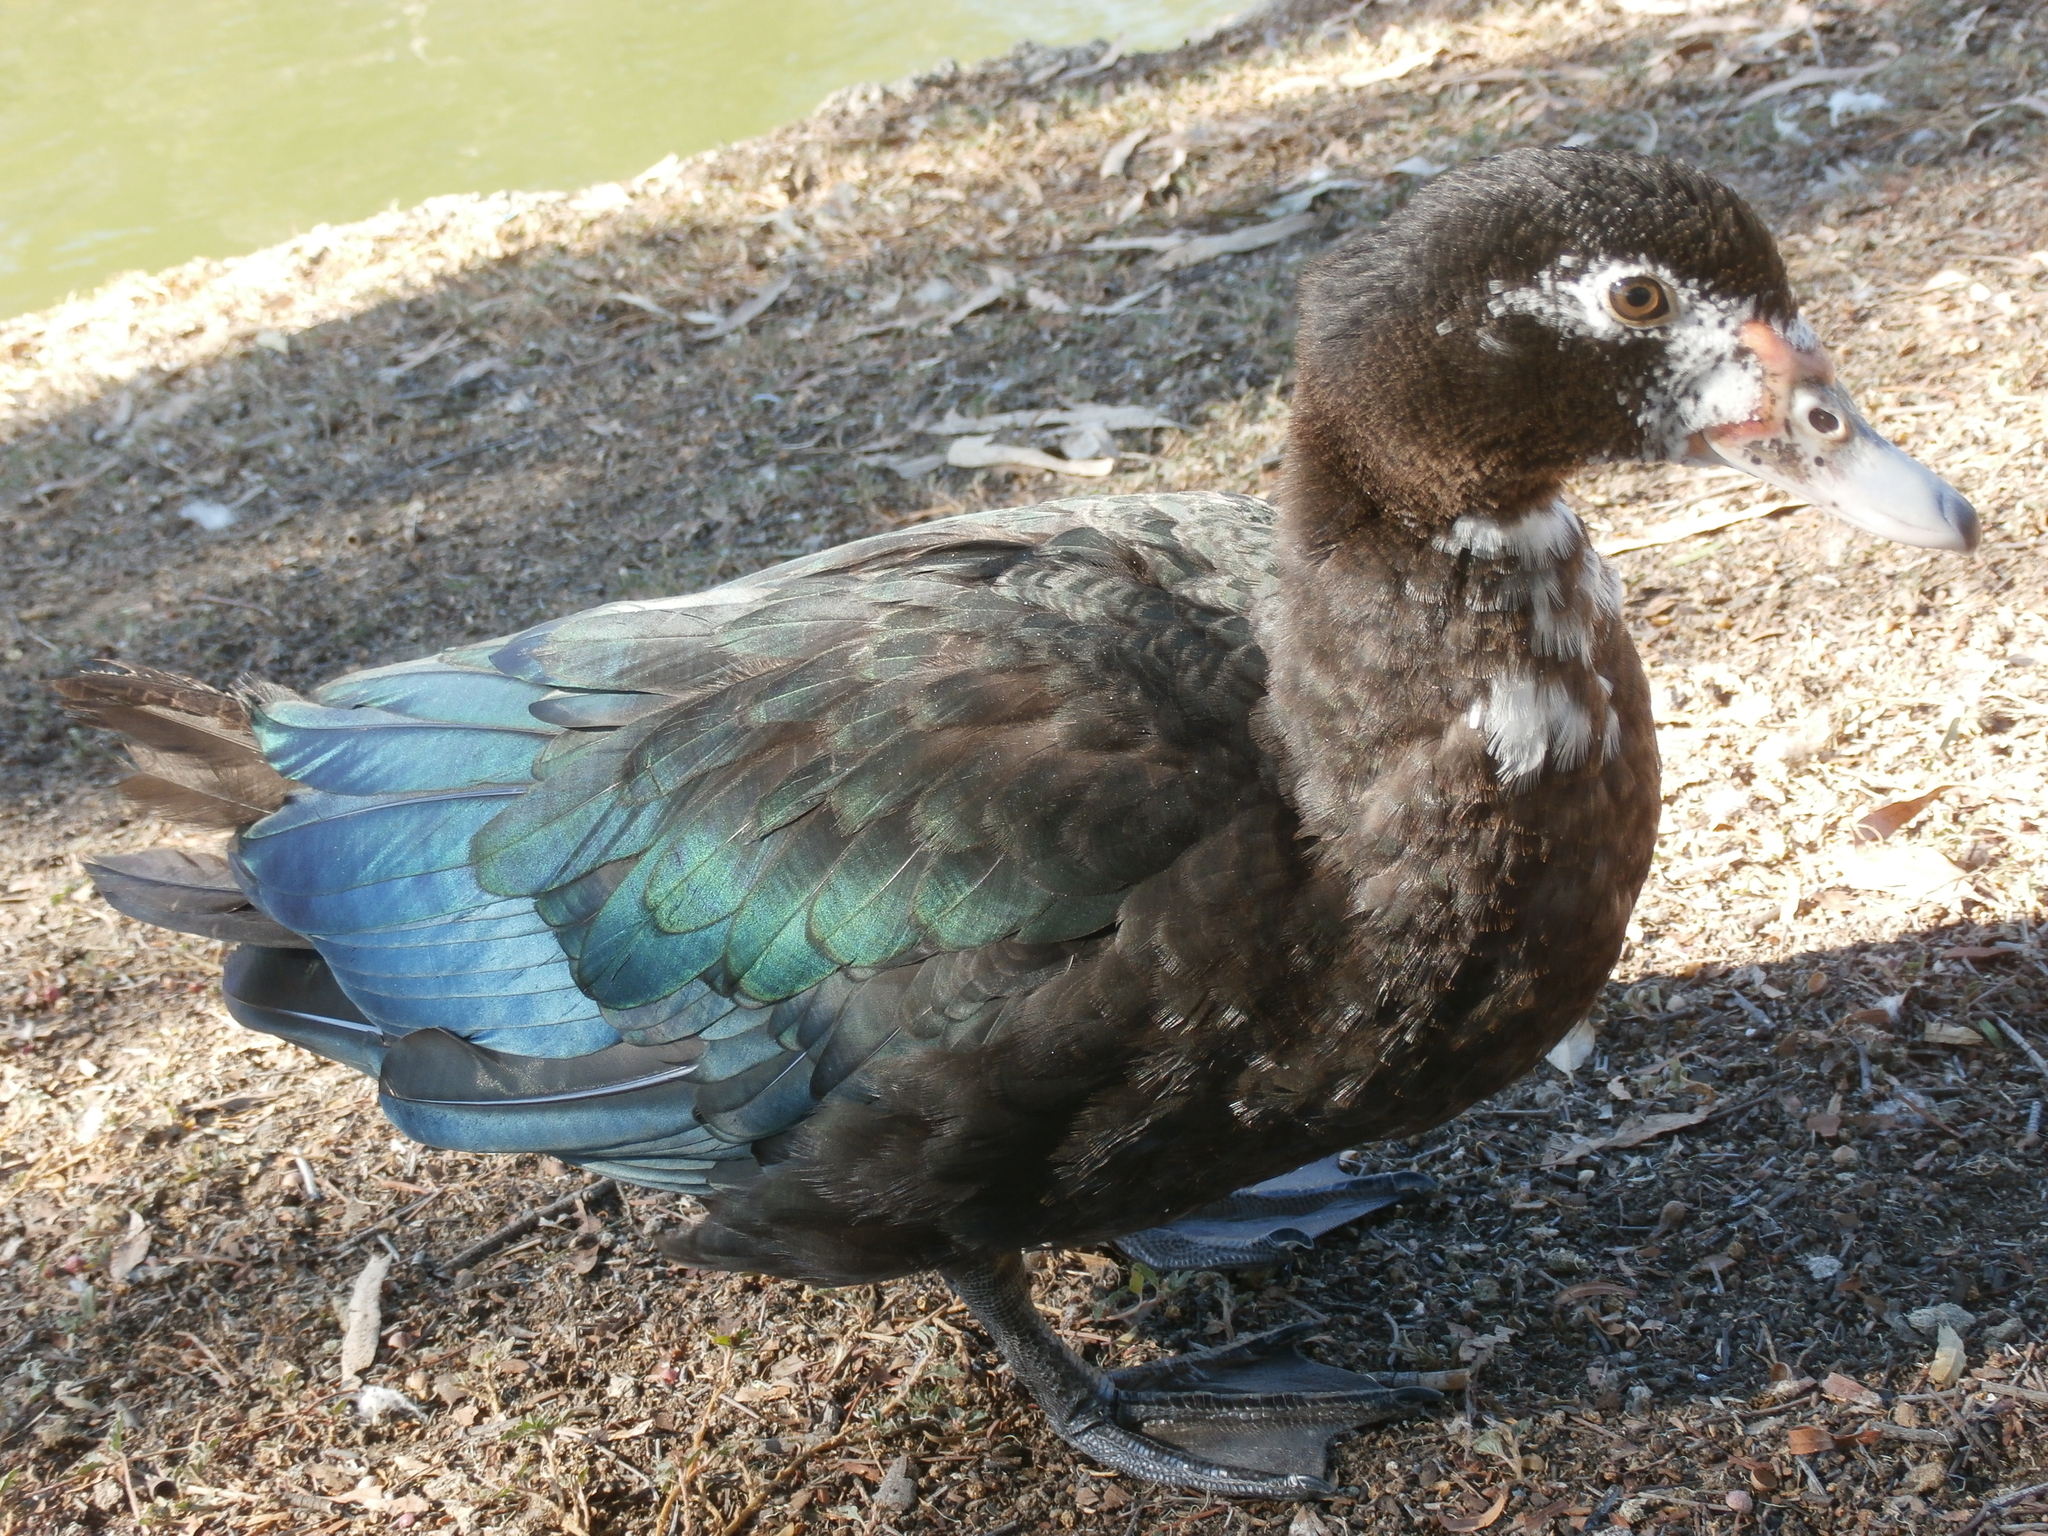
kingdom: Animalia
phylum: Chordata
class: Aves
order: Anseriformes
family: Anatidae
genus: Cairina
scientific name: Cairina moschata
